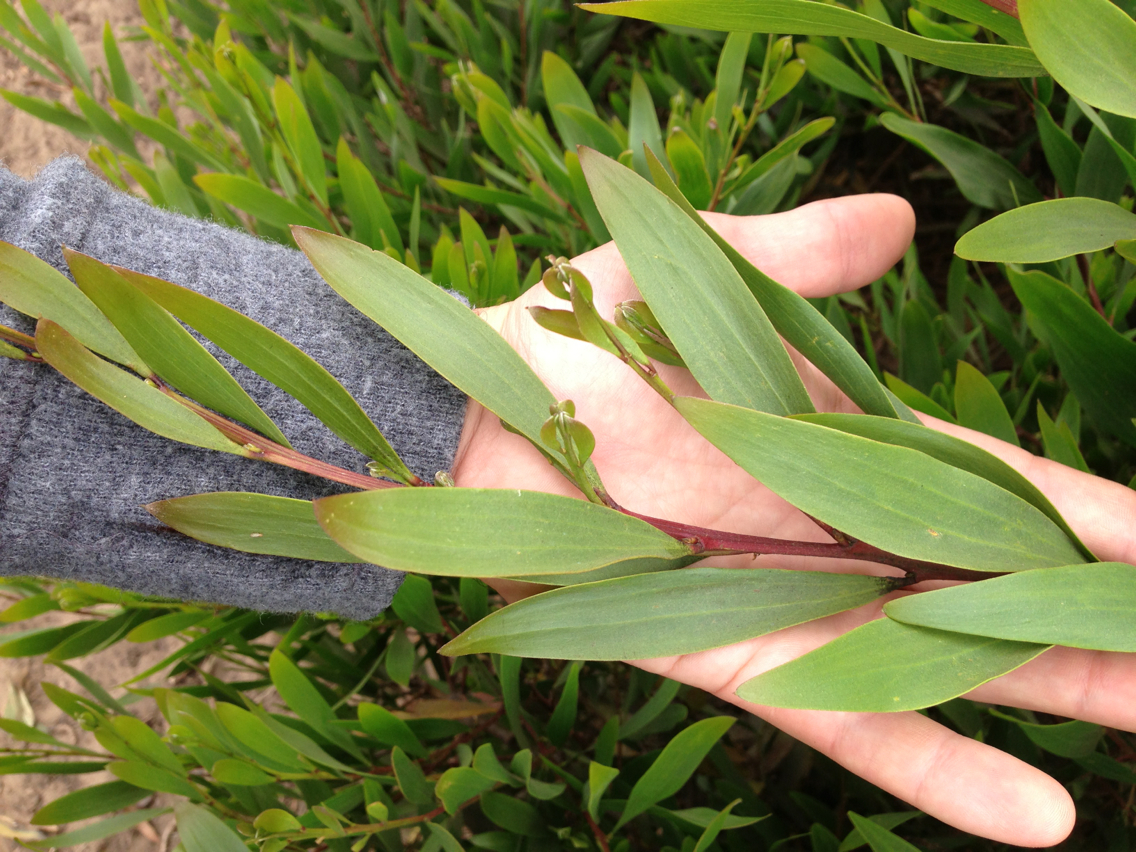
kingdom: Plantae
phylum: Tracheophyta
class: Magnoliopsida
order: Fabales
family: Fabaceae
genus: Acacia
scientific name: Acacia longifolia
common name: Sydney golden wattle
